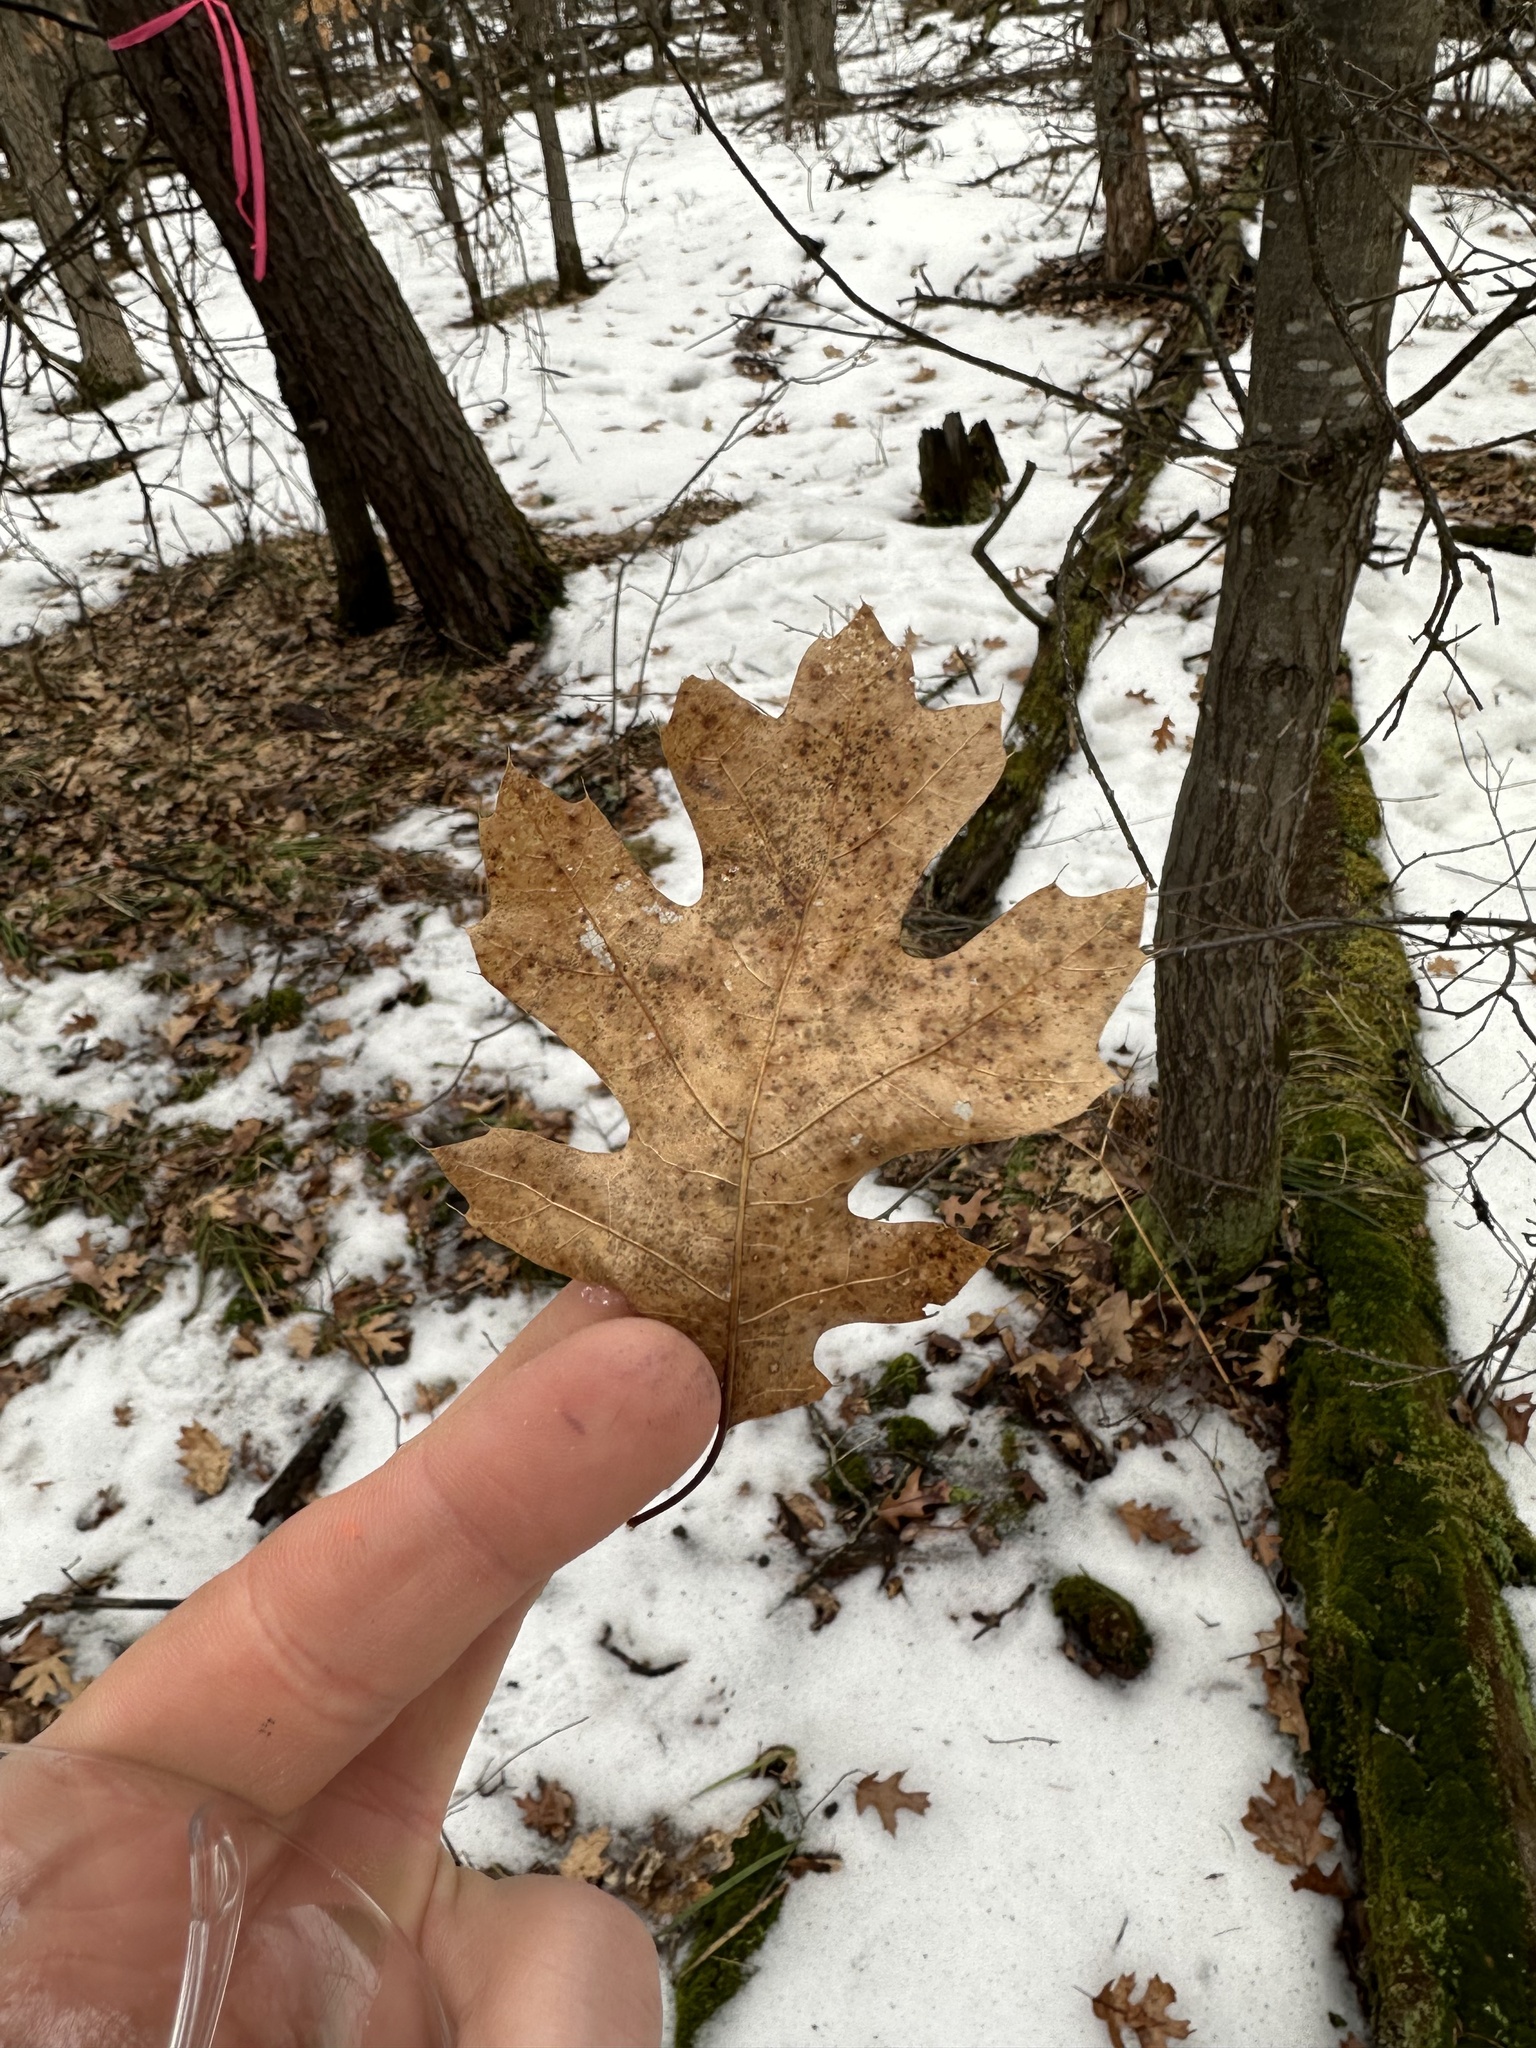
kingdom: Plantae
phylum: Tracheophyta
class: Magnoliopsida
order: Fagales
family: Fagaceae
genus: Quercus
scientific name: Quercus rubra
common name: Red oak
